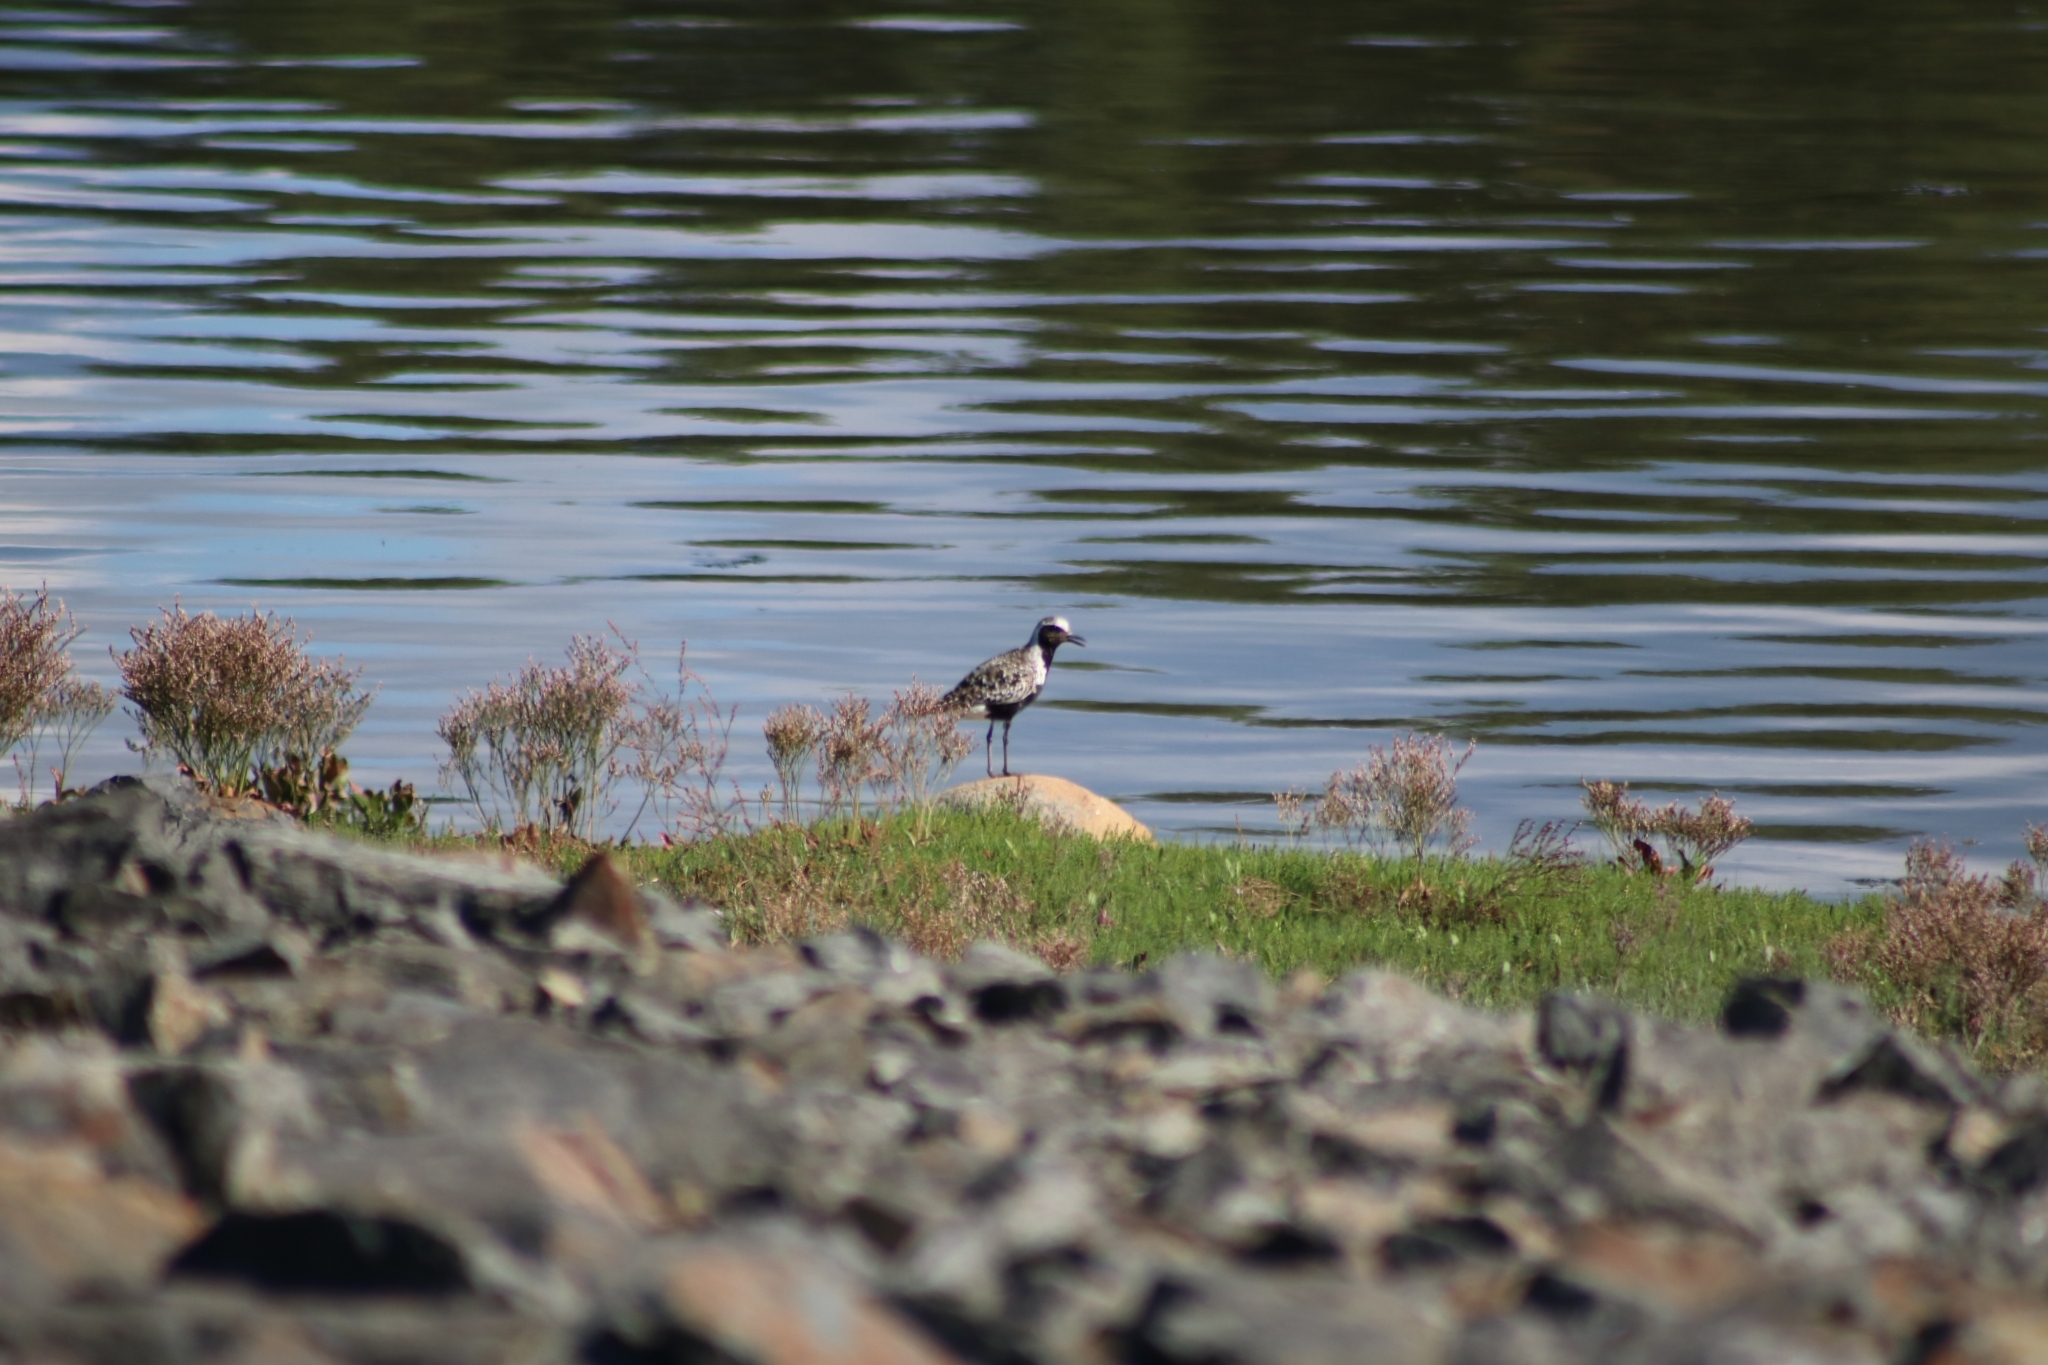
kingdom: Animalia
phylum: Chordata
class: Aves
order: Charadriiformes
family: Charadriidae
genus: Pluvialis
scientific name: Pluvialis squatarola
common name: Grey plover
